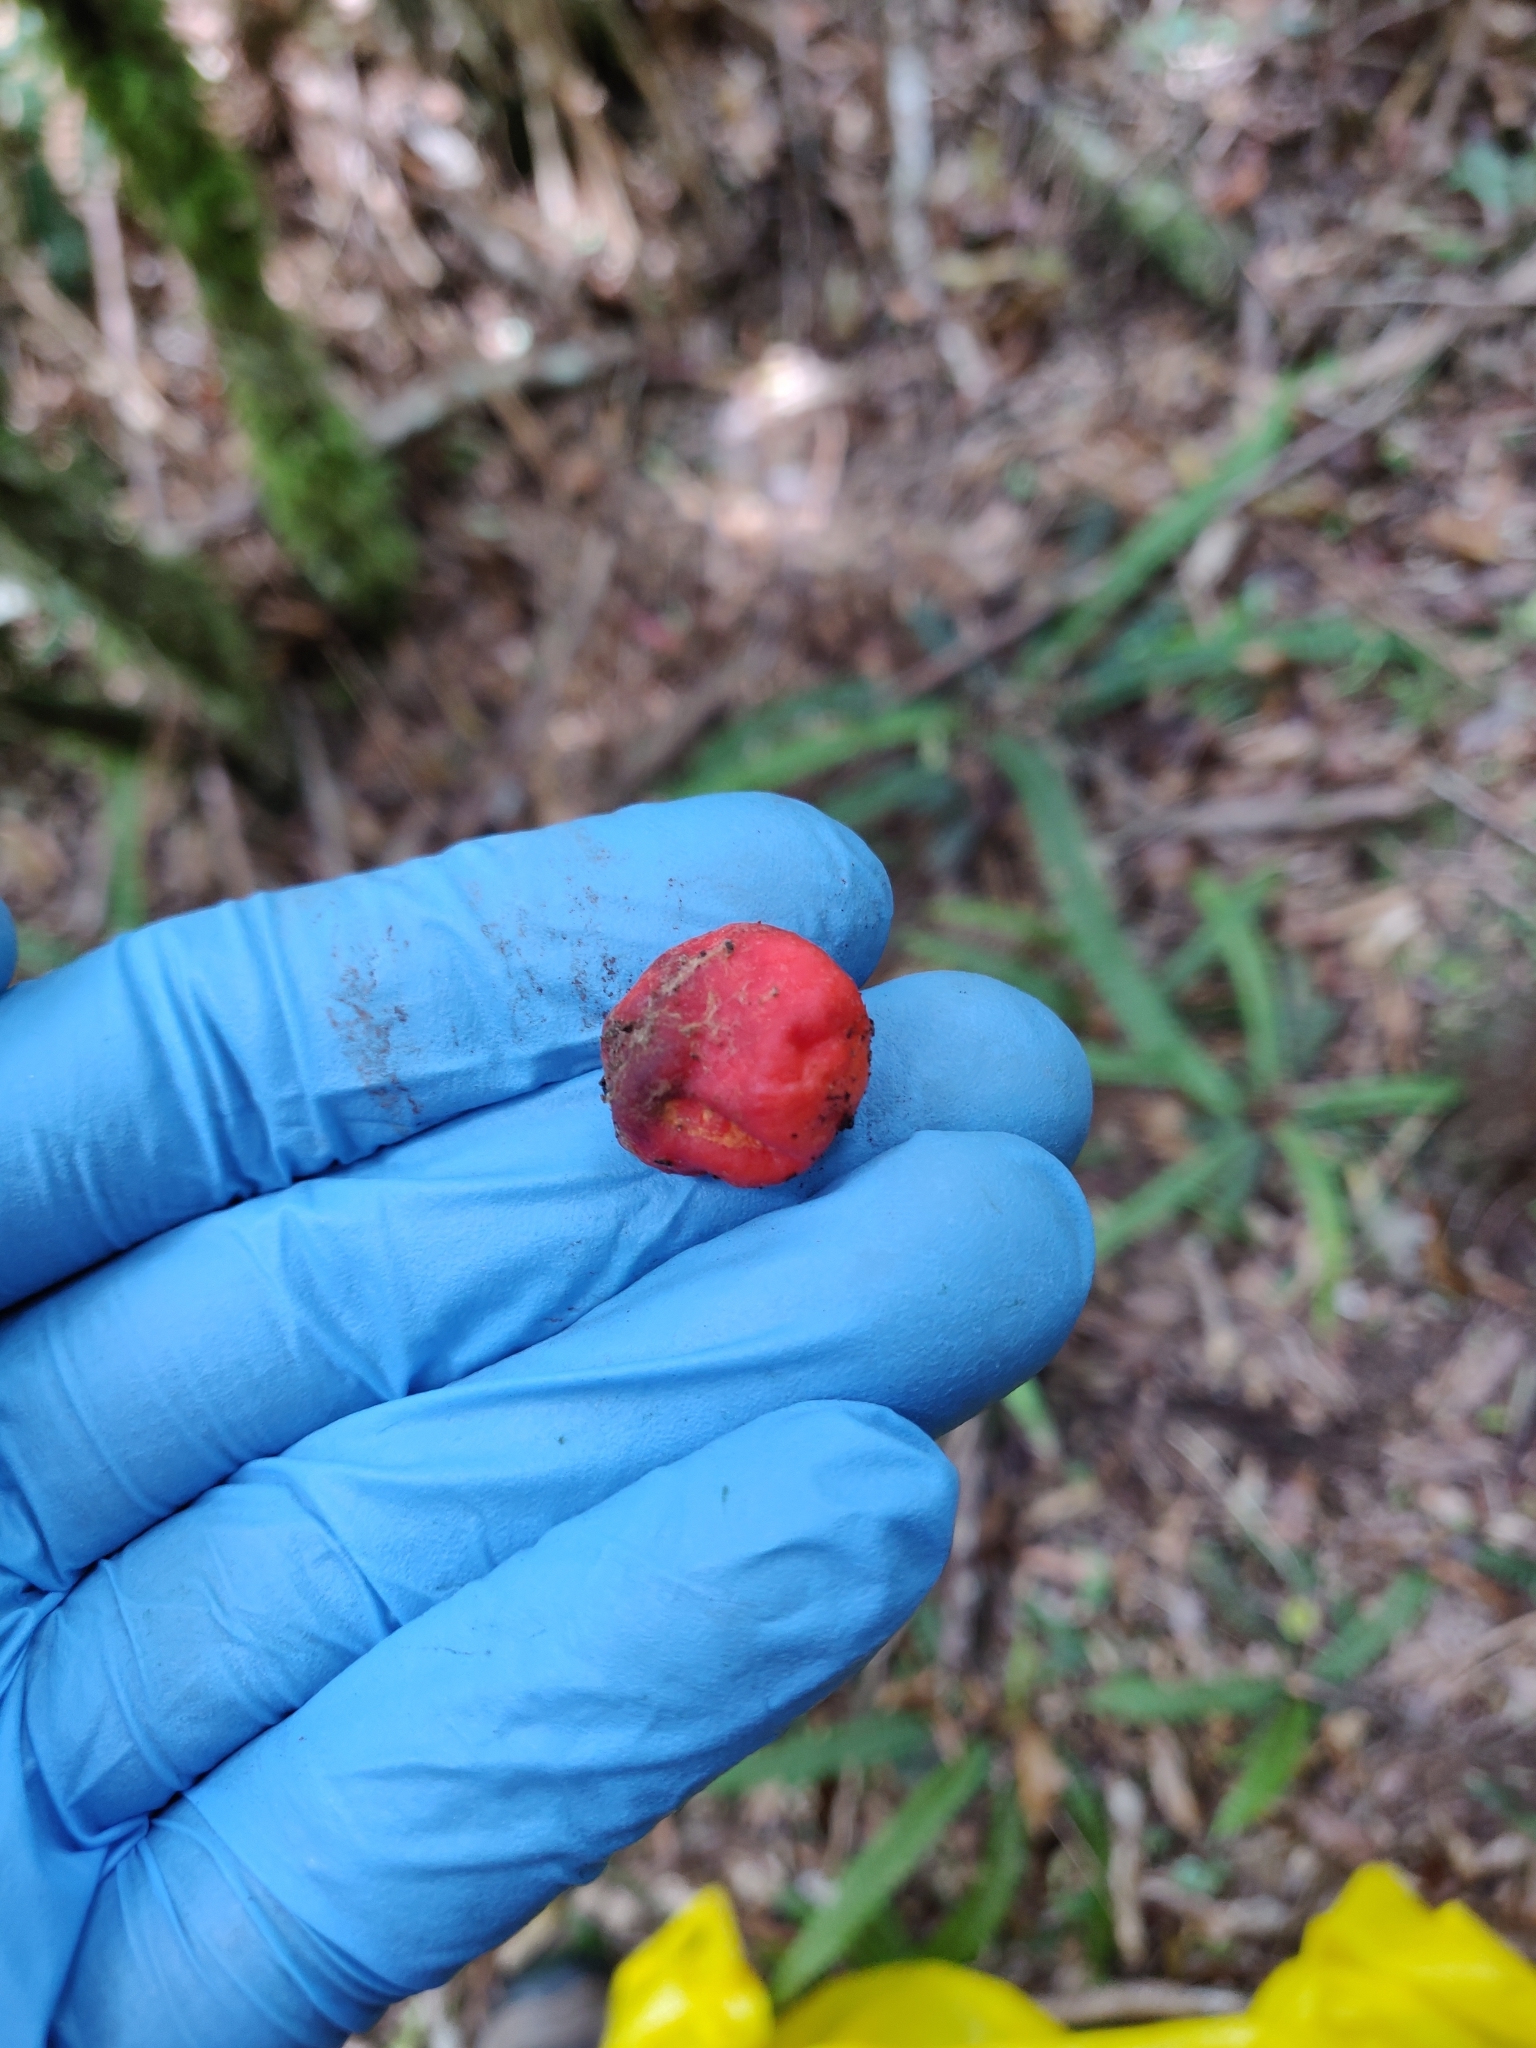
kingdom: Fungi
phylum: Ascomycota
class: Pezizomycetes
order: Pezizales
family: Pyronemataceae
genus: Paurocotylis
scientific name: Paurocotylis pila
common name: Scarlet berry truffle
